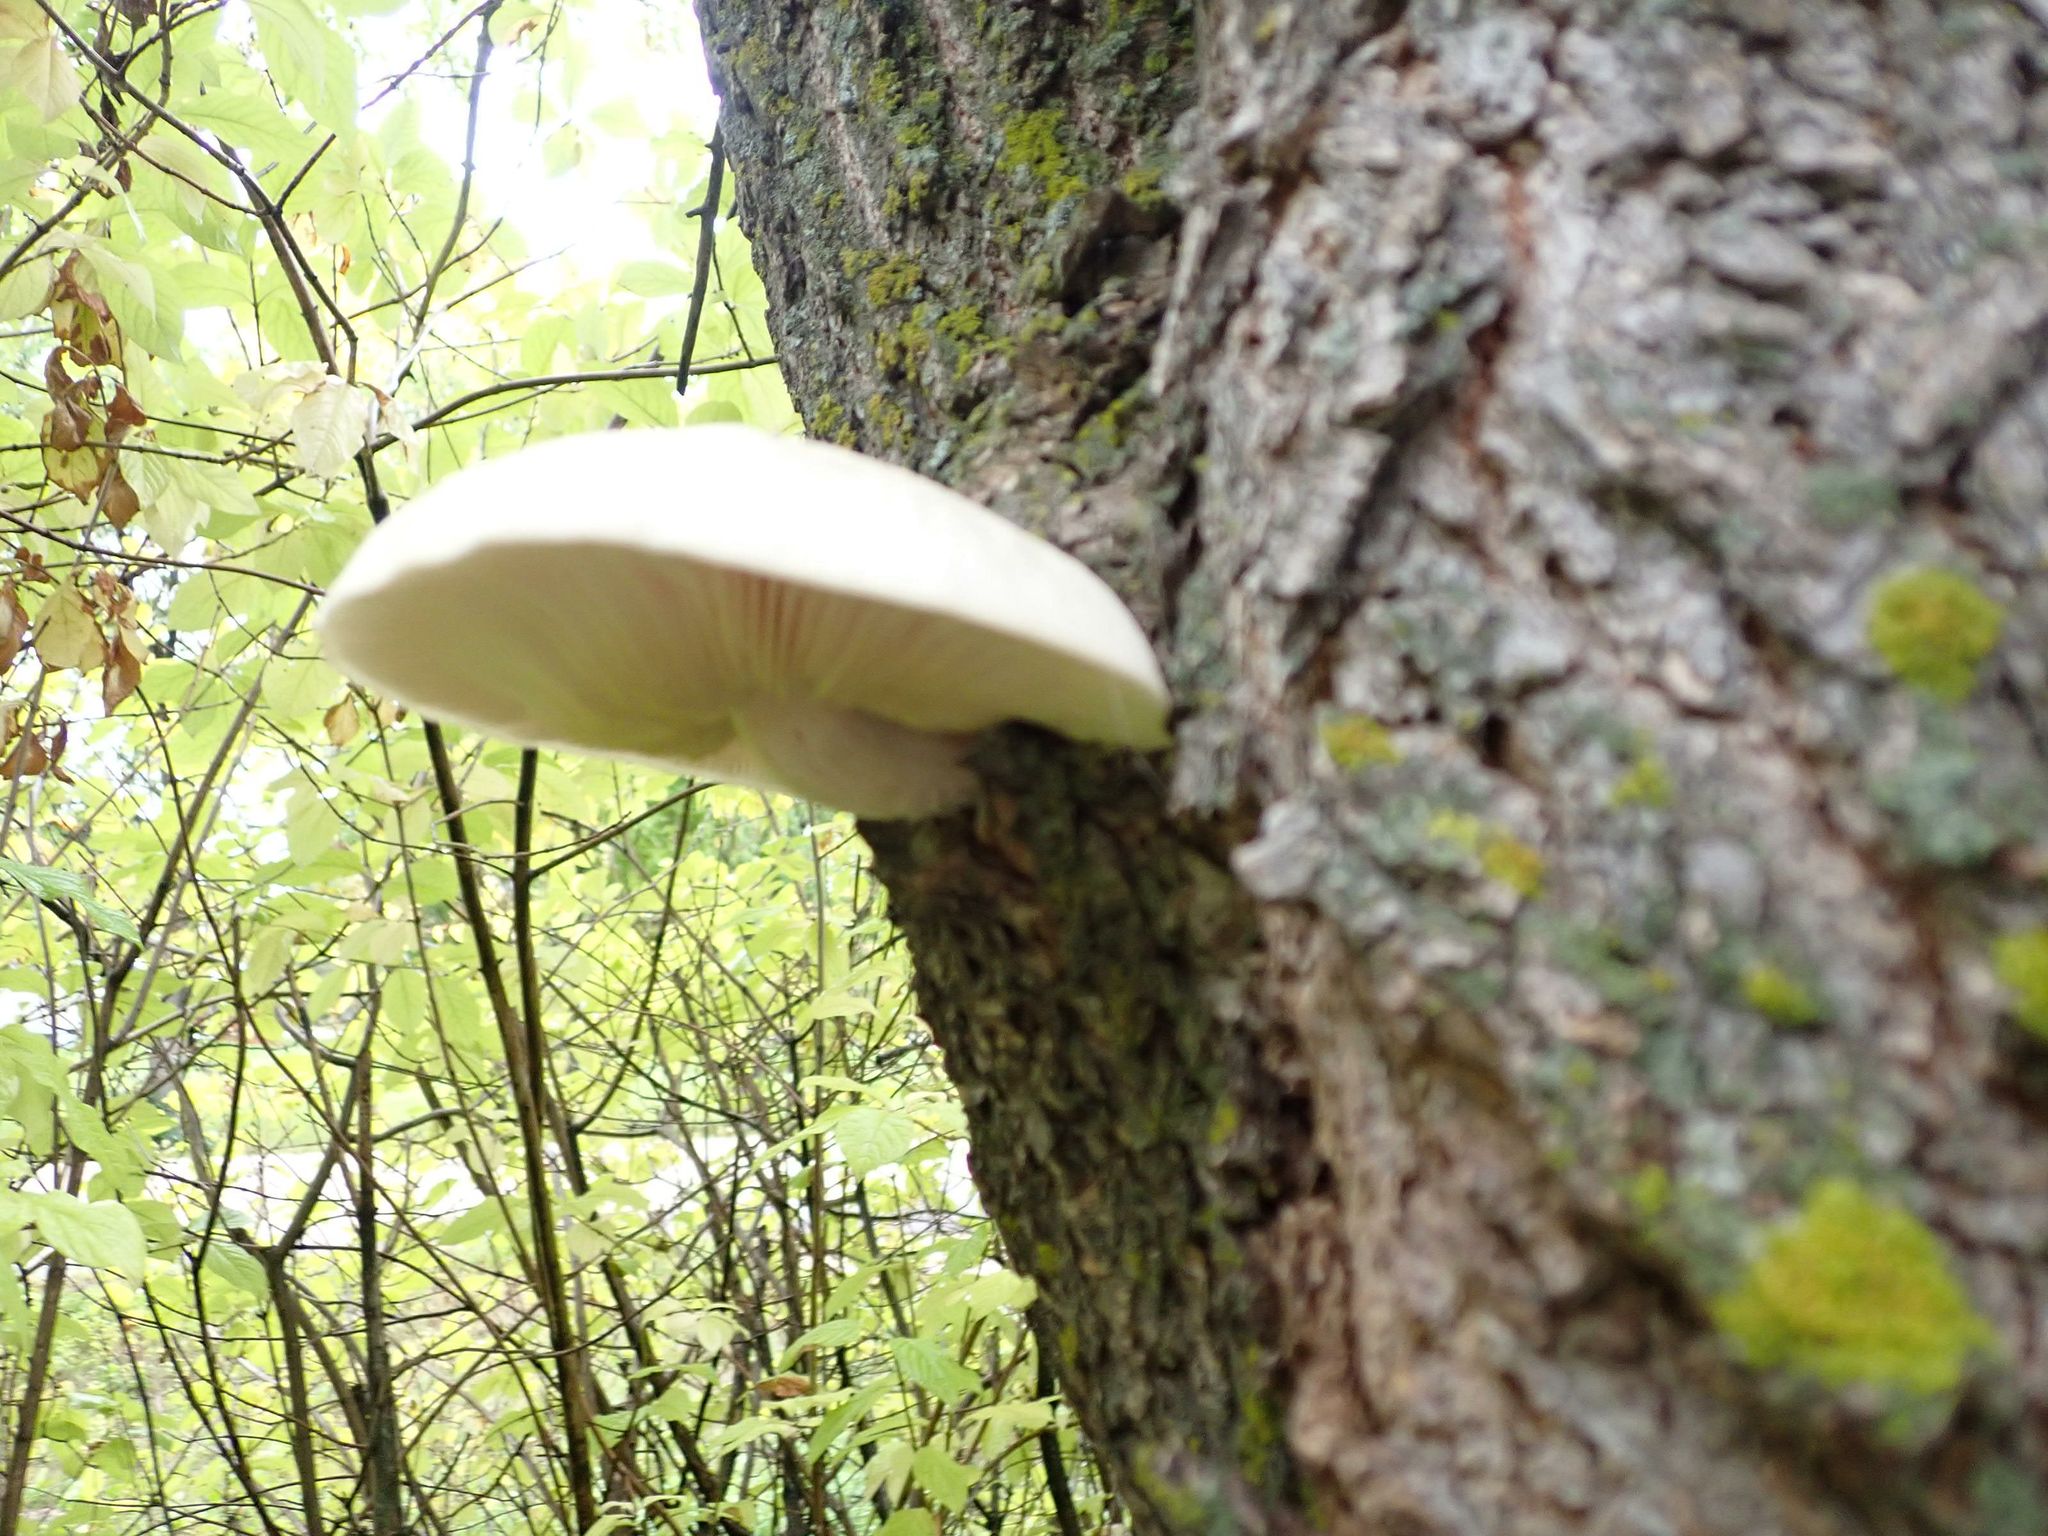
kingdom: Fungi
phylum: Basidiomycota
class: Agaricomycetes
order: Agaricales
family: Lyophyllaceae
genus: Hypsizygus
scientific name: Hypsizygus ulmarius
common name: Elm leech
